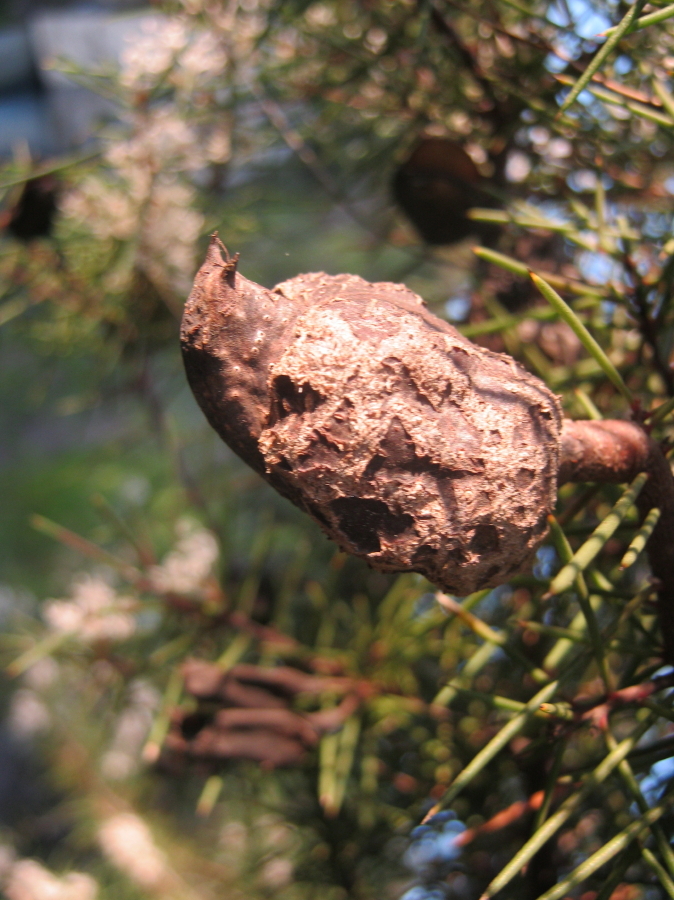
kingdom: Plantae
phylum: Tracheophyta
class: Magnoliopsida
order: Proteales
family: Proteaceae
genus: Hakea
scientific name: Hakea sericea
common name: Needle bush
